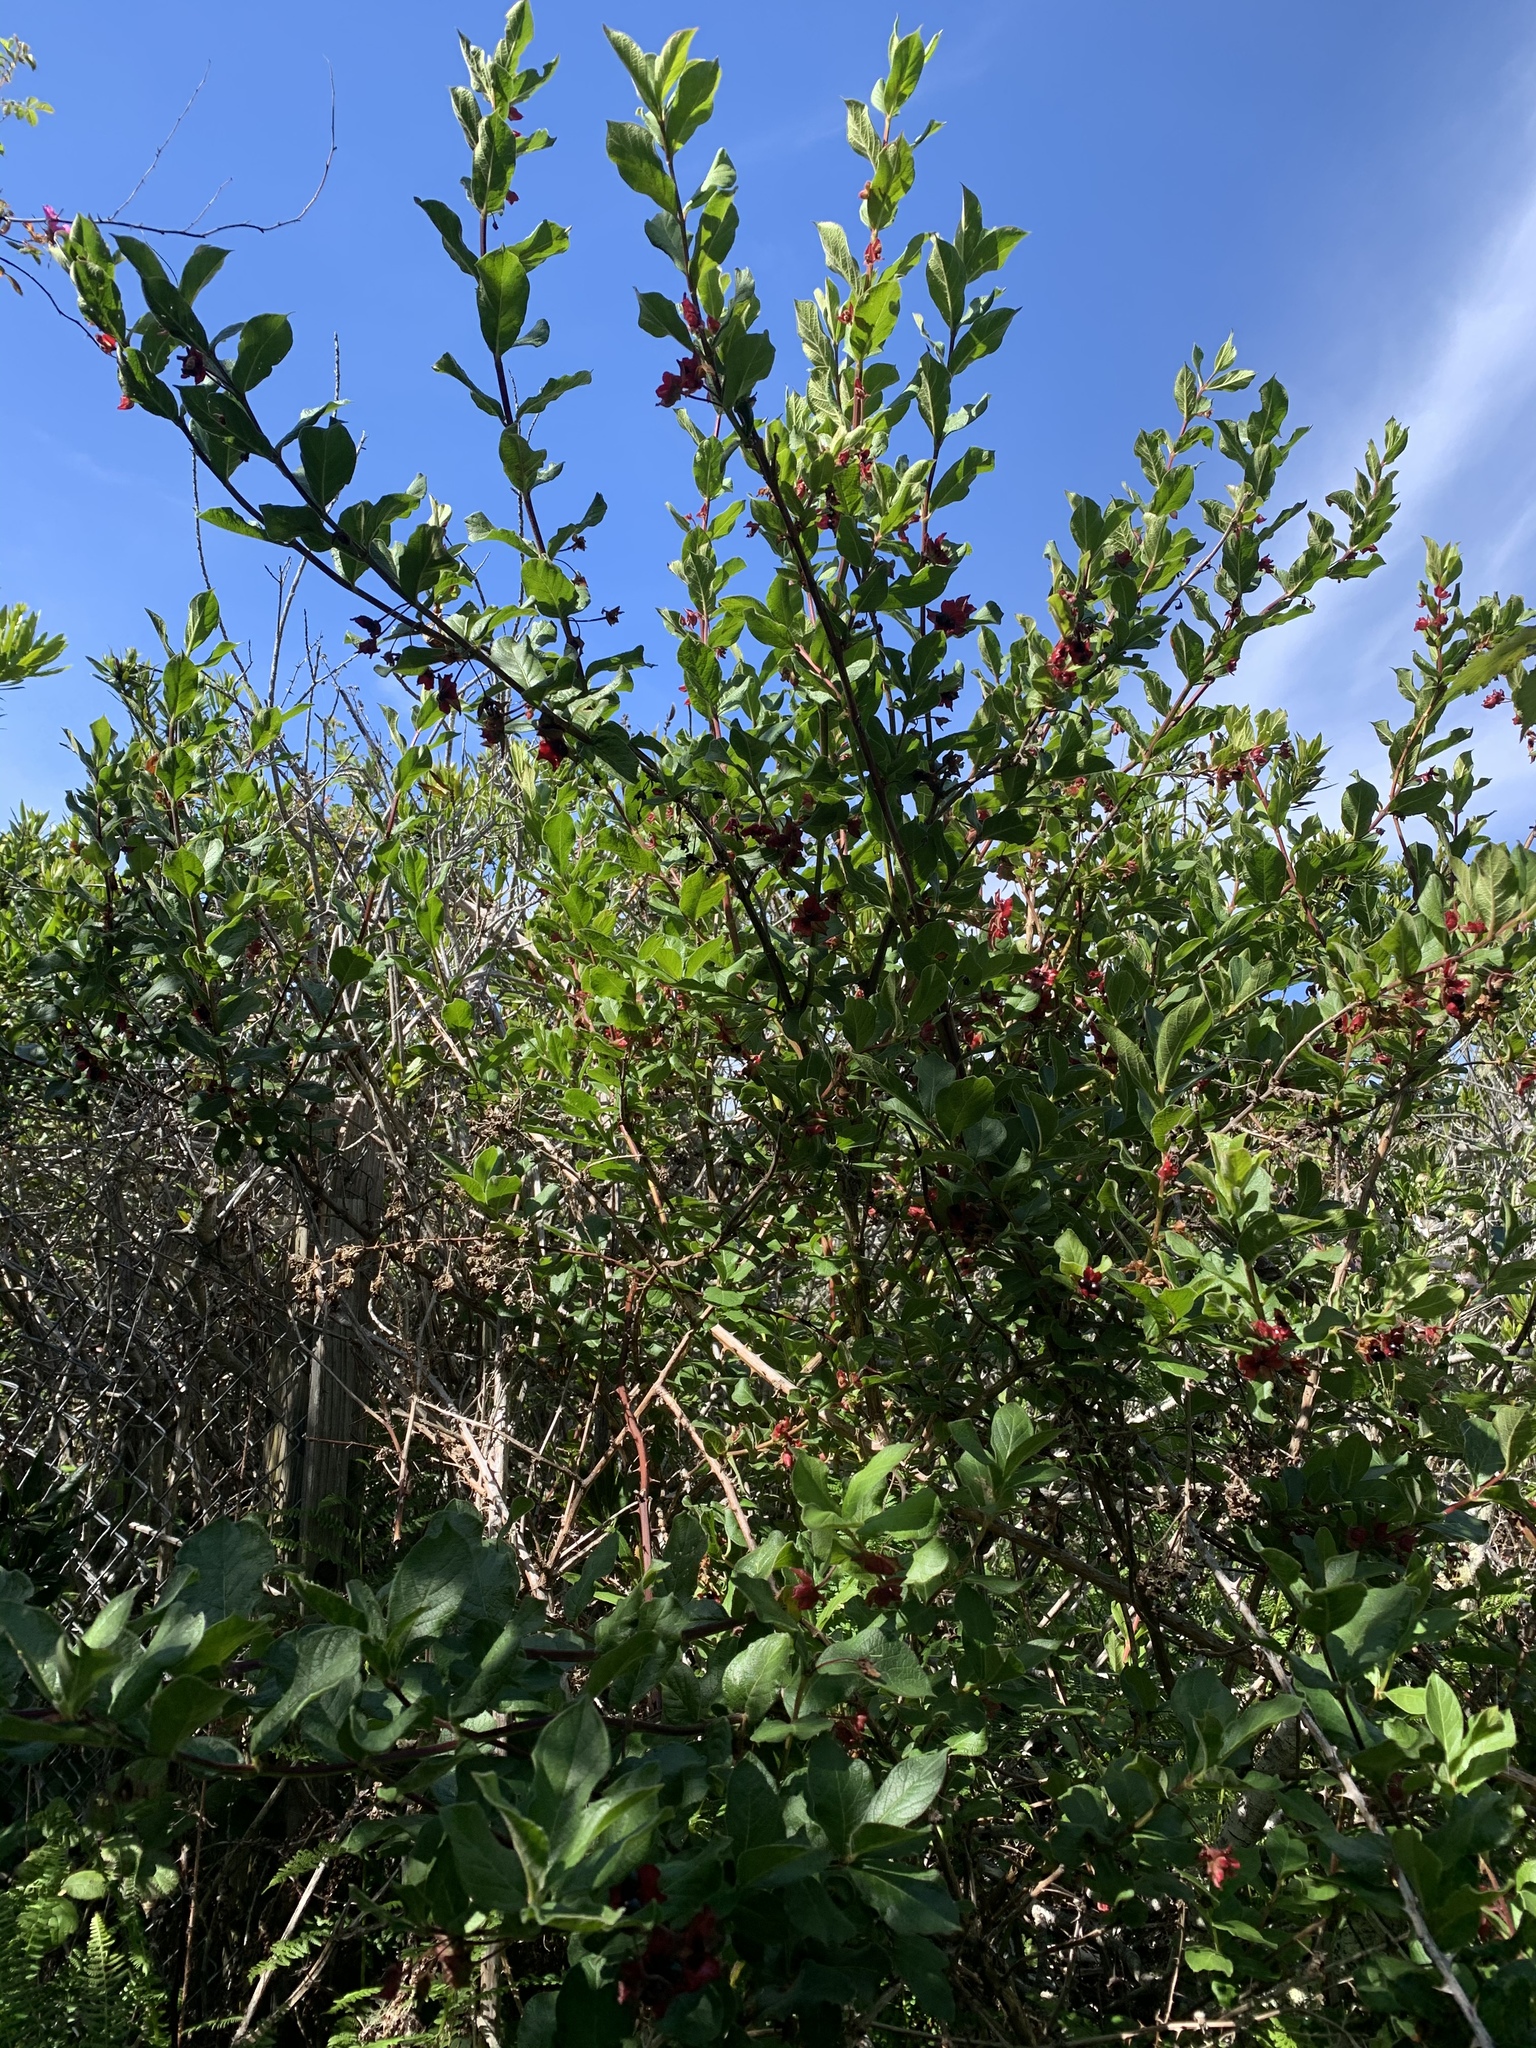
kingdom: Plantae
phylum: Tracheophyta
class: Magnoliopsida
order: Dipsacales
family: Caprifoliaceae
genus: Lonicera
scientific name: Lonicera involucrata
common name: Californian honeysuckle
